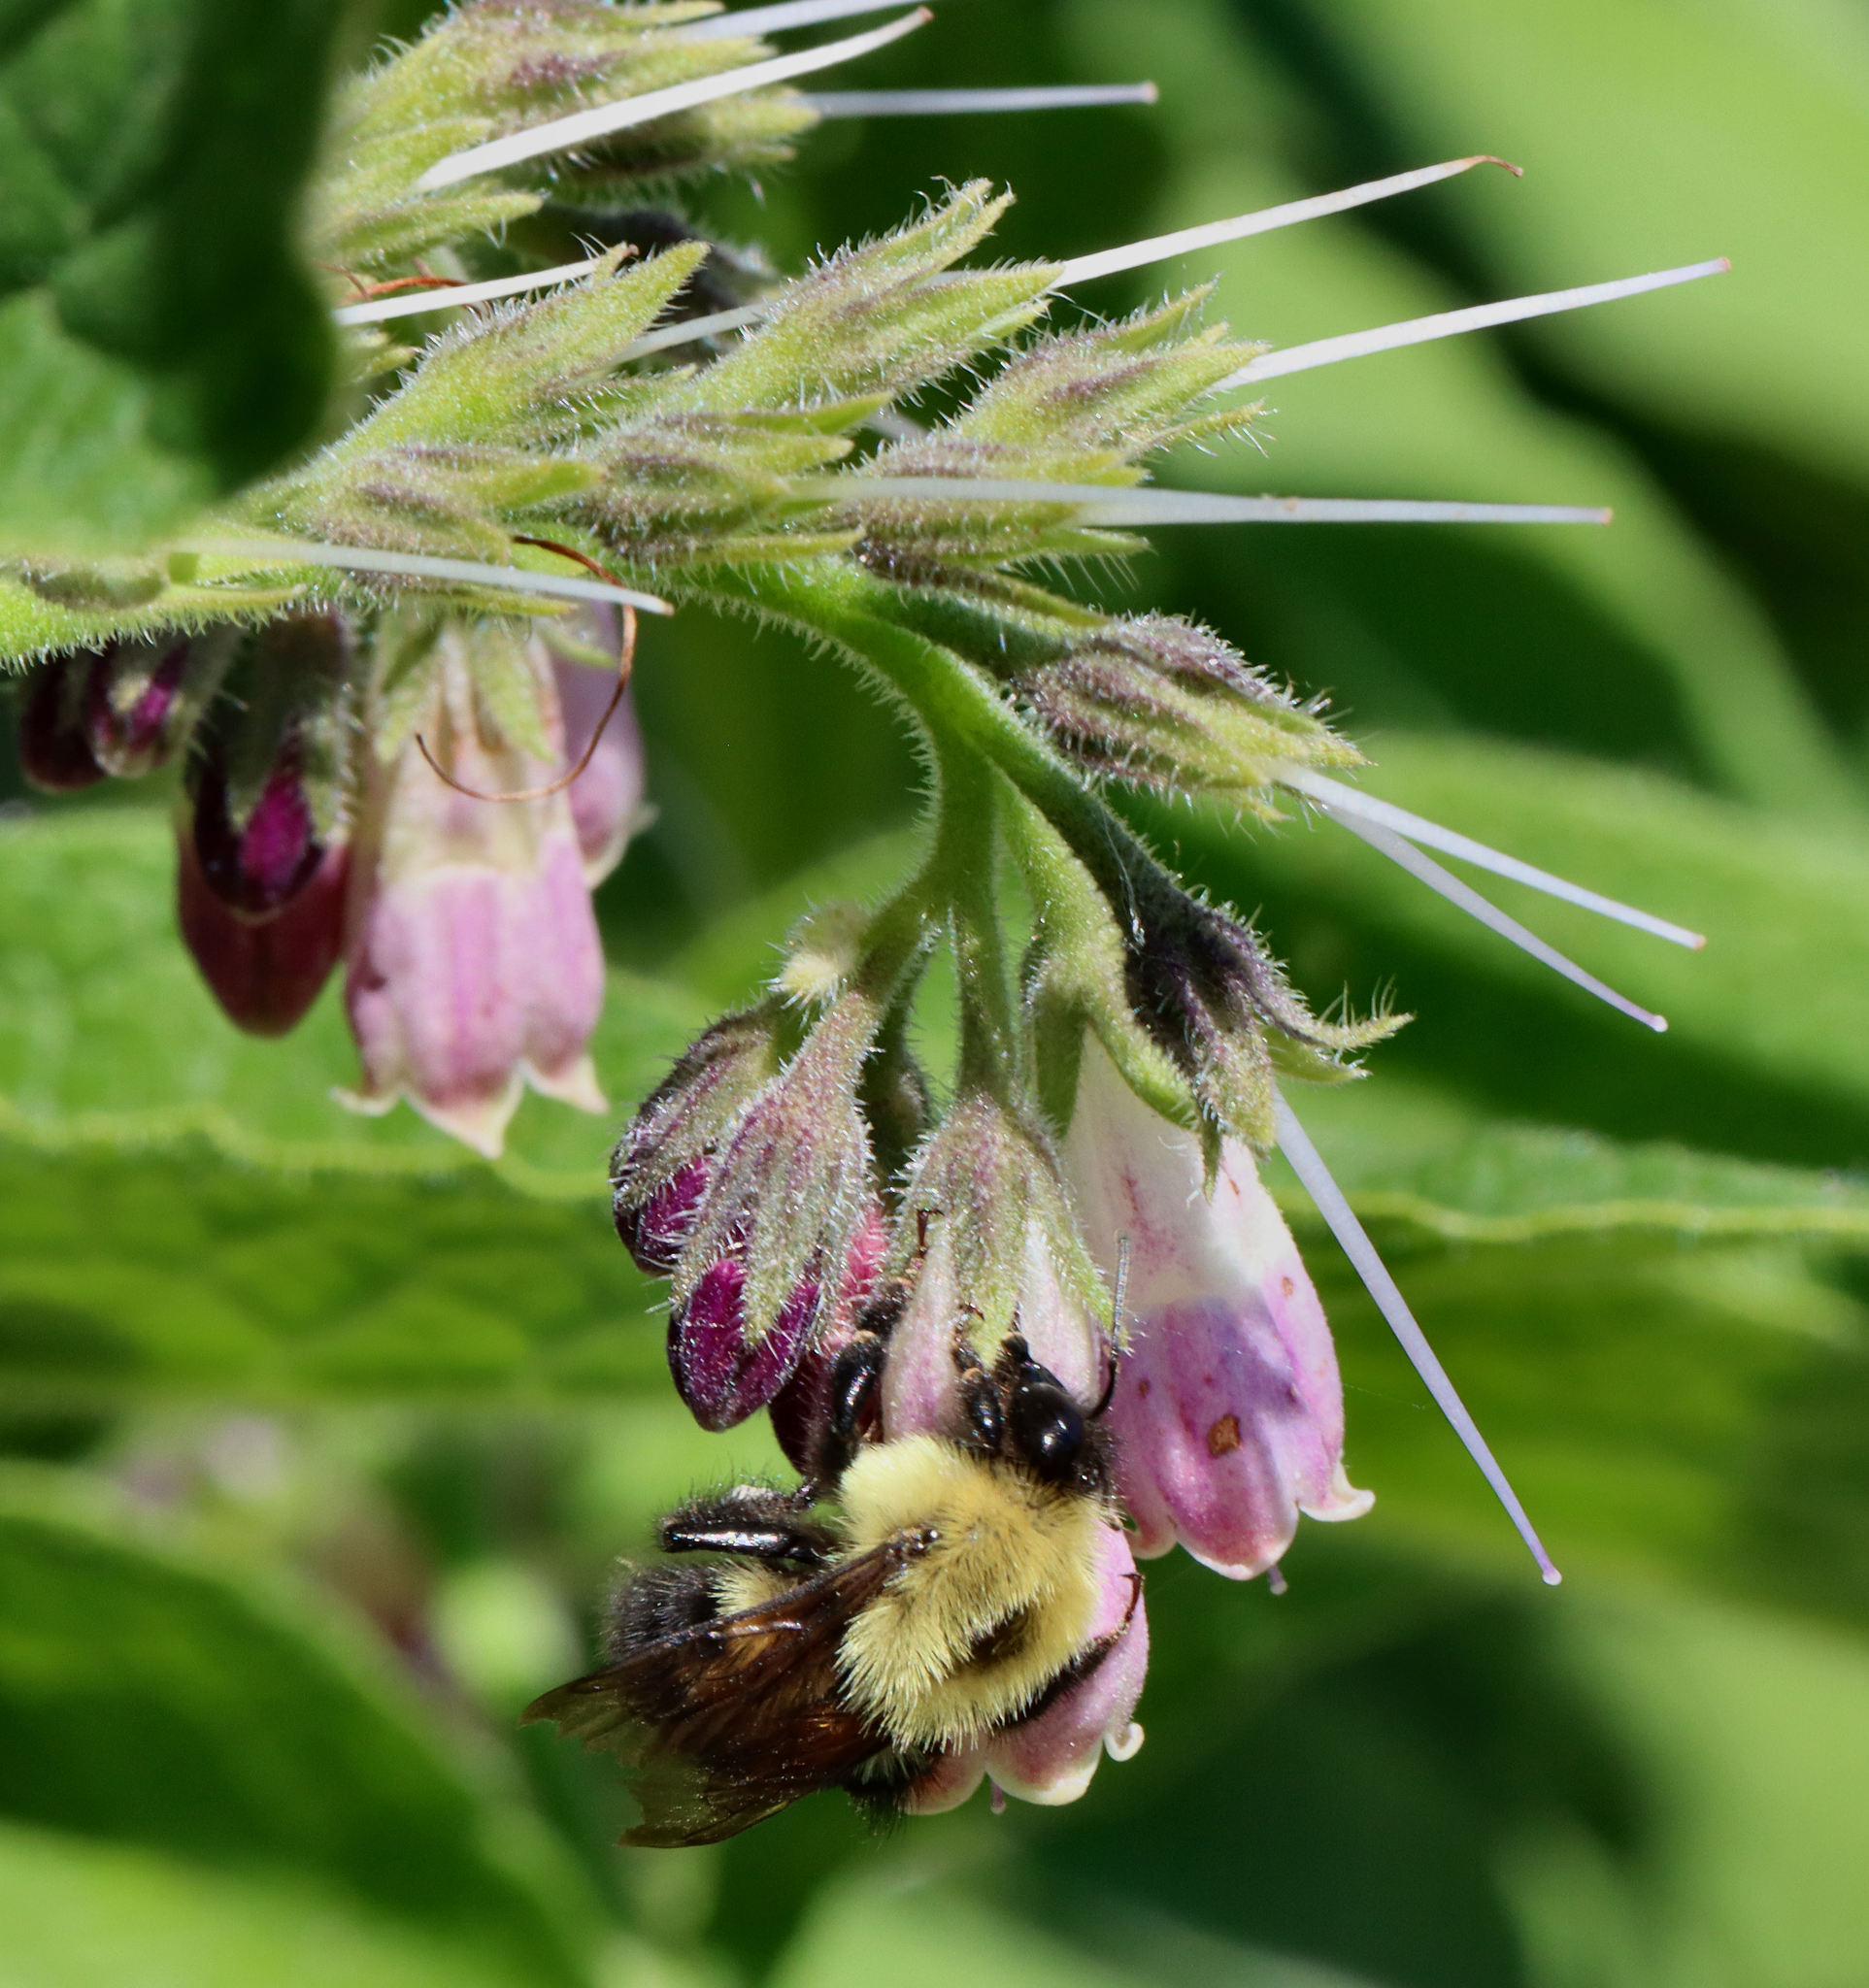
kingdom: Animalia
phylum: Arthropoda
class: Insecta
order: Hymenoptera
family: Apidae
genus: Bombus
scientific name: Bombus bimaculatus
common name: Two-spotted bumble bee
